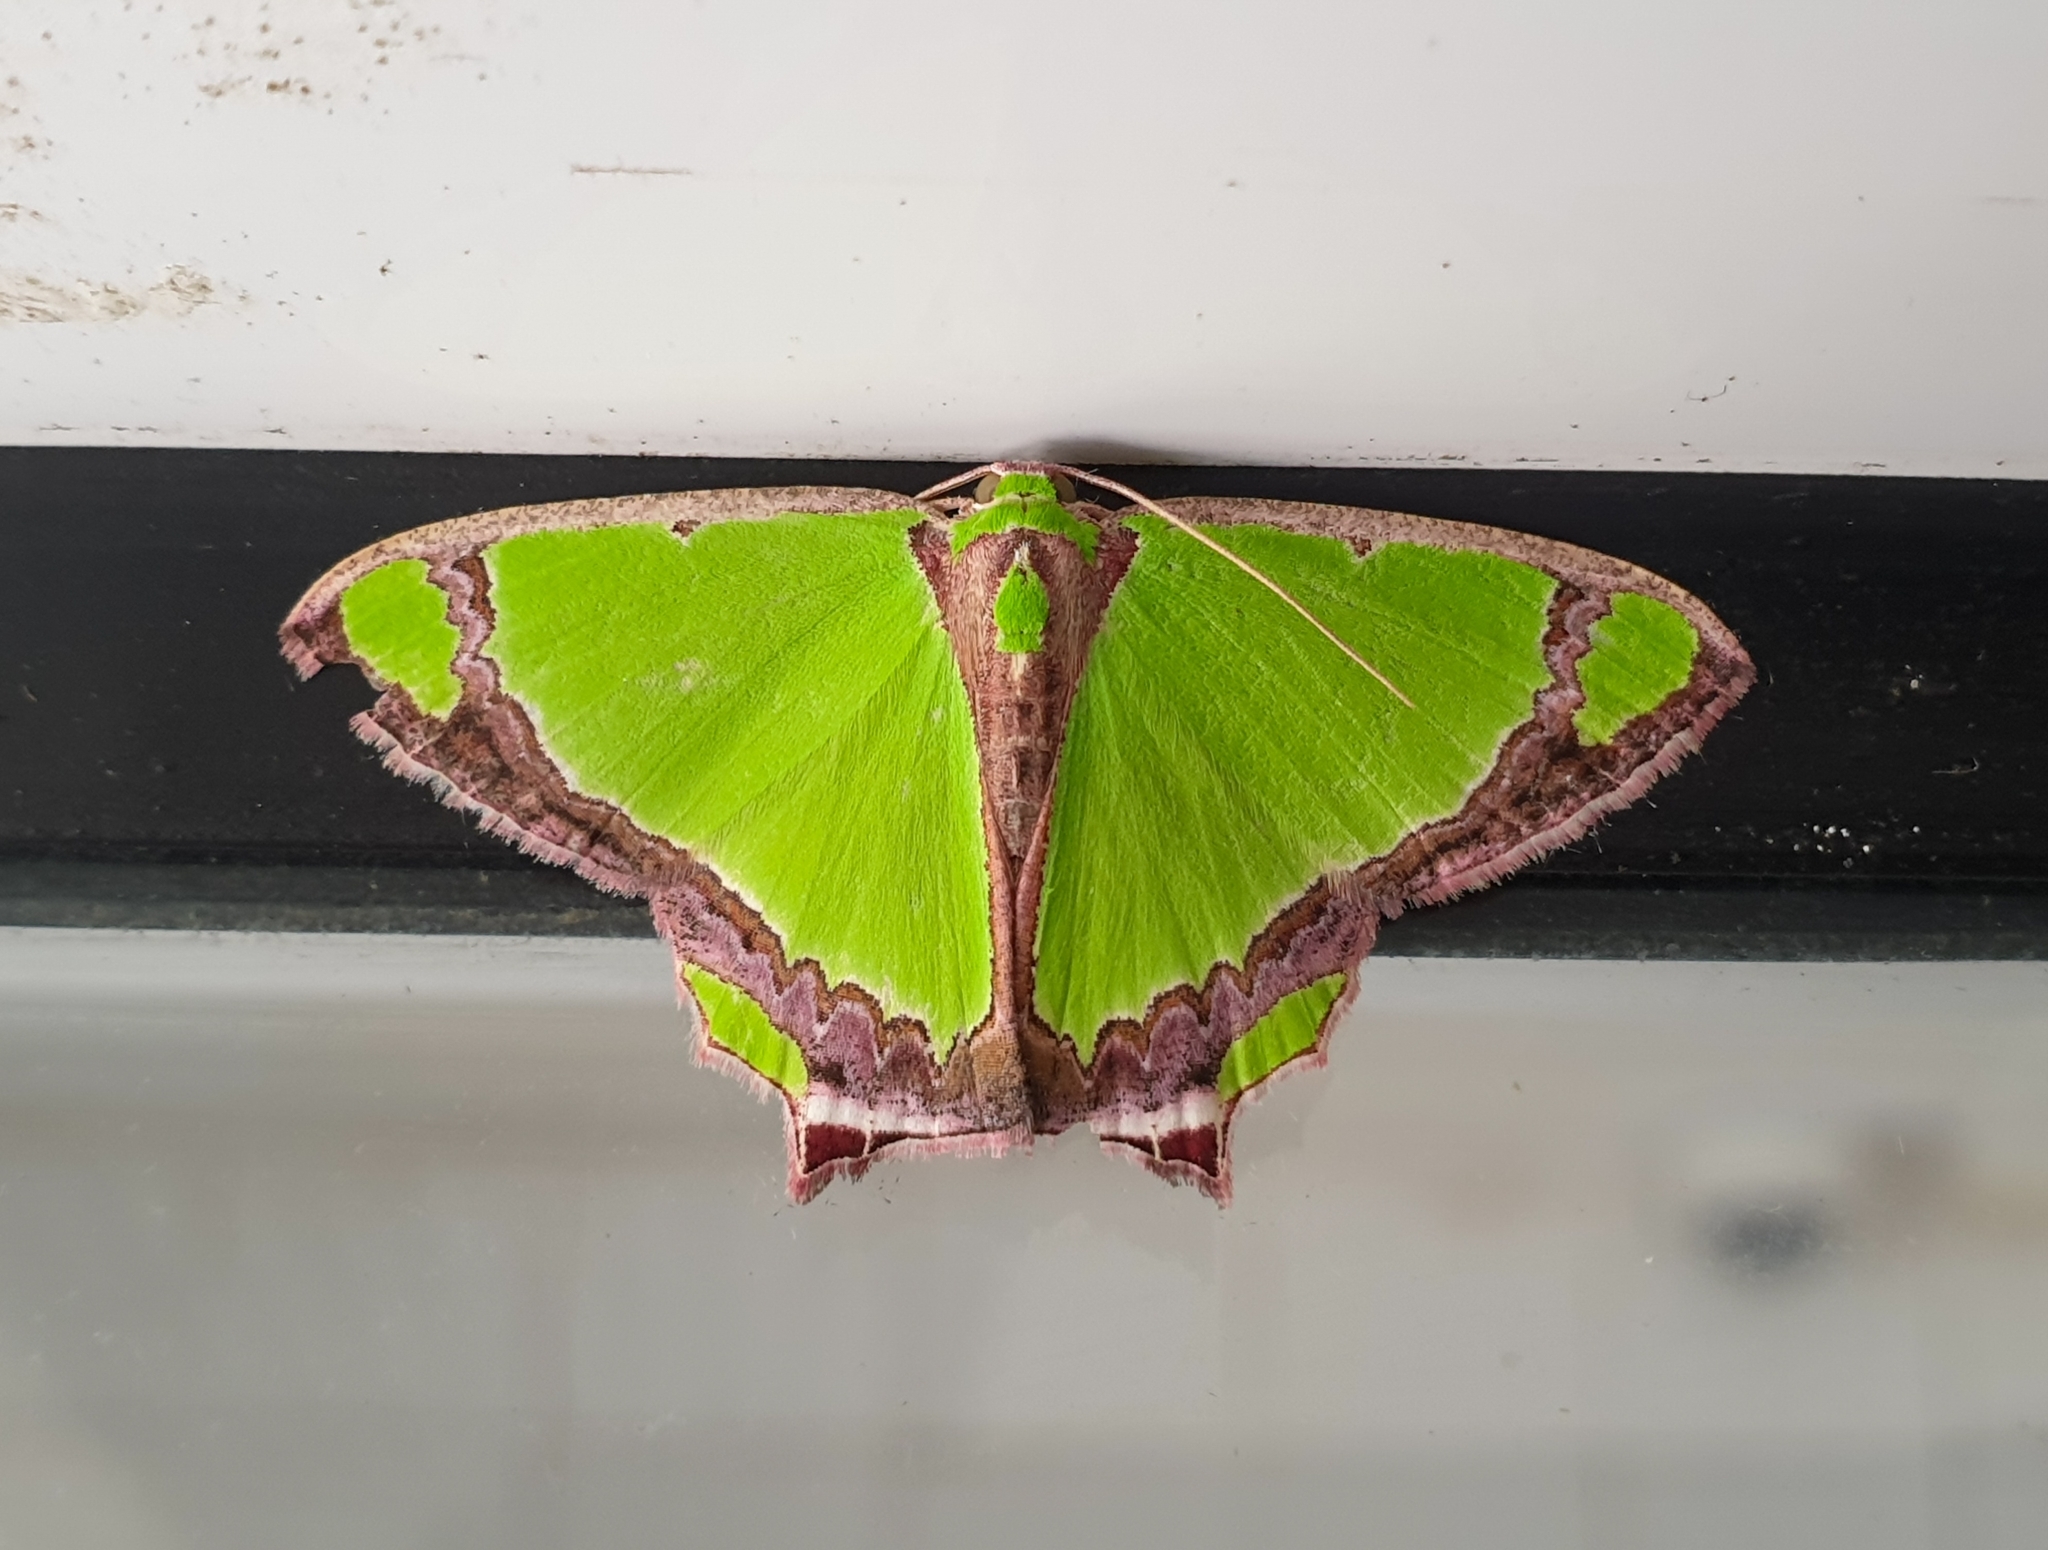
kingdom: Animalia
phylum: Arthropoda
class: Insecta
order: Lepidoptera
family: Geometridae
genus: Agathia
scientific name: Agathia laetata
